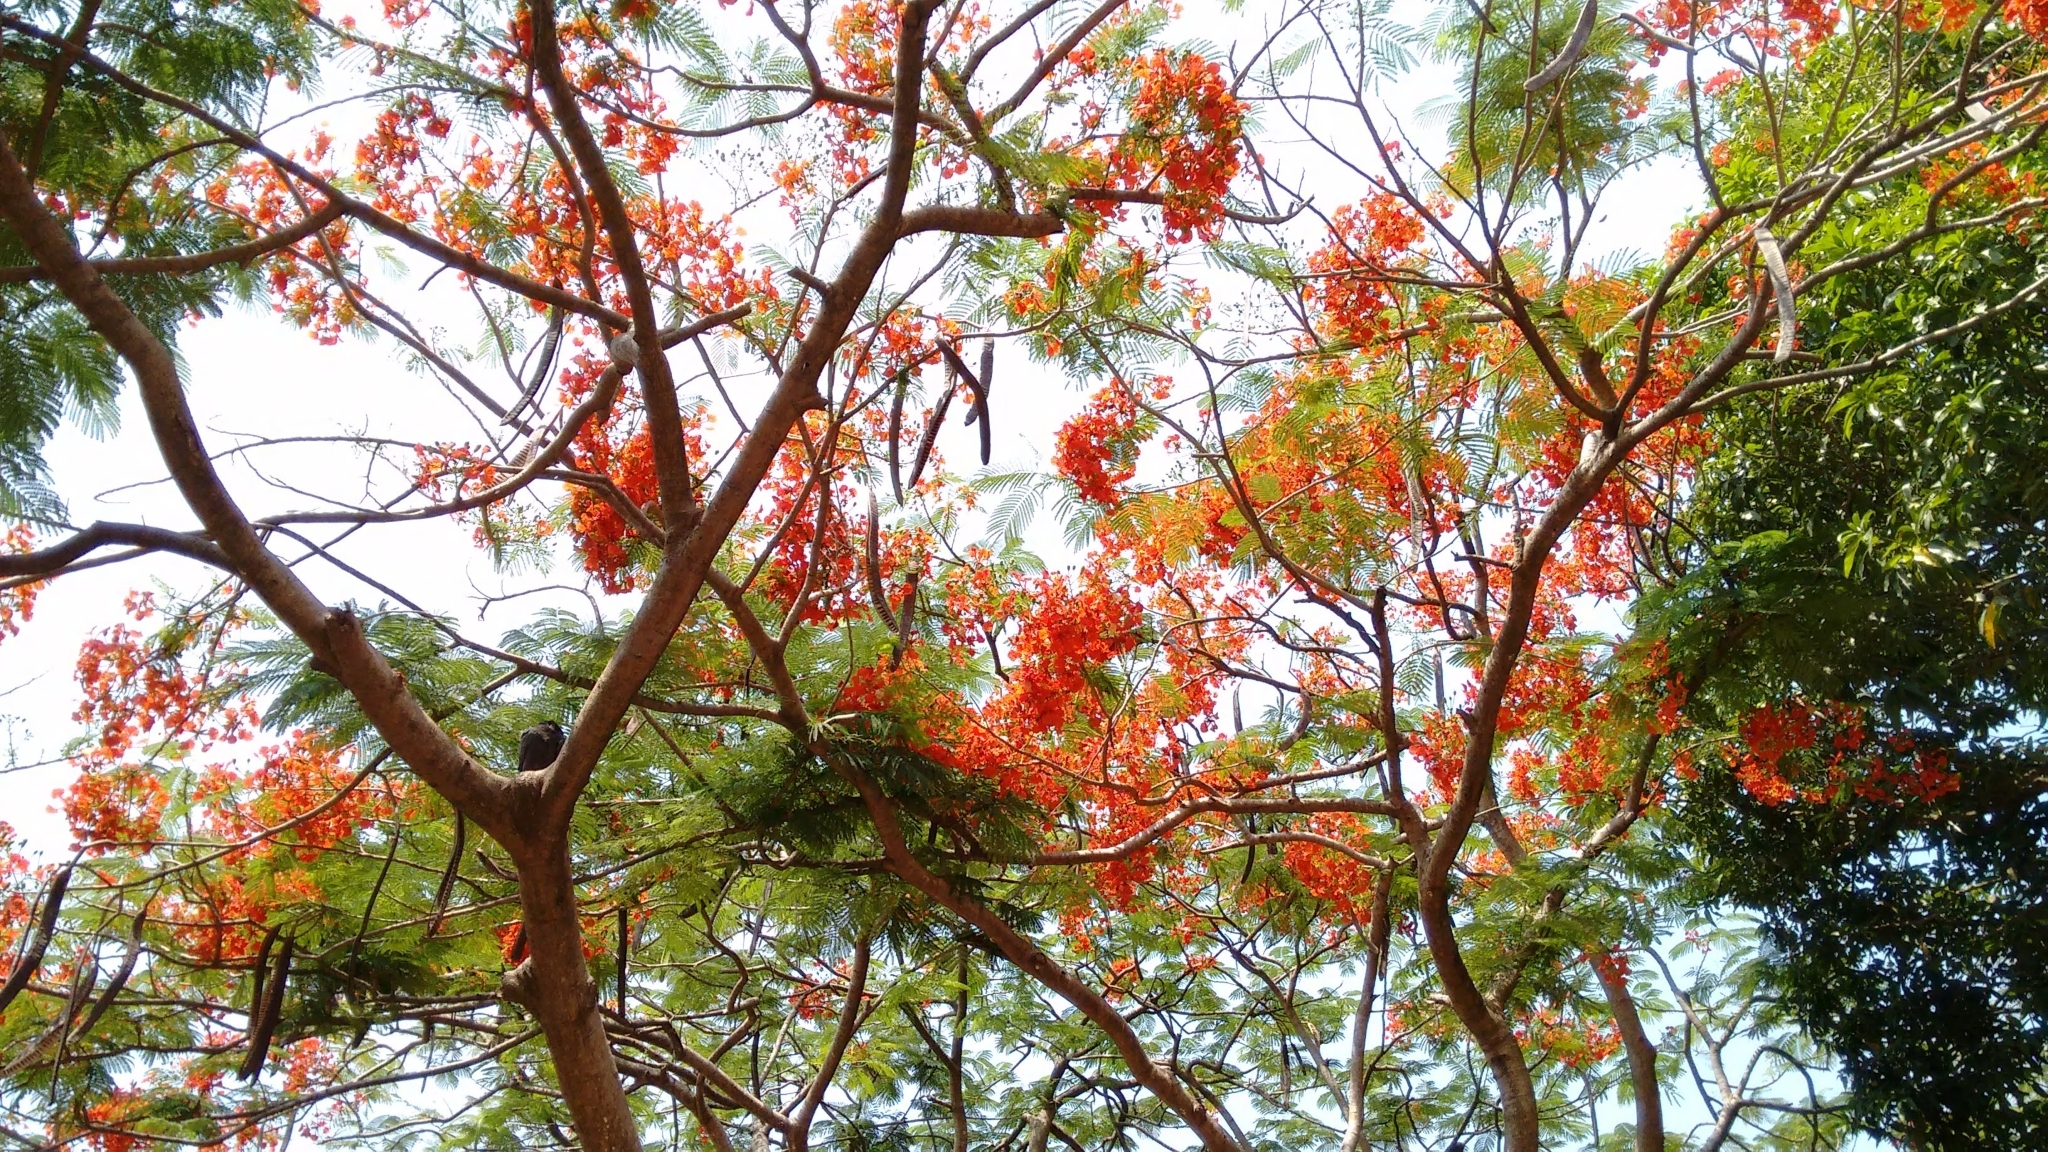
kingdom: Plantae
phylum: Tracheophyta
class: Magnoliopsida
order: Fabales
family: Fabaceae
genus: Delonix
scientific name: Delonix regia
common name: Royal poinciana
